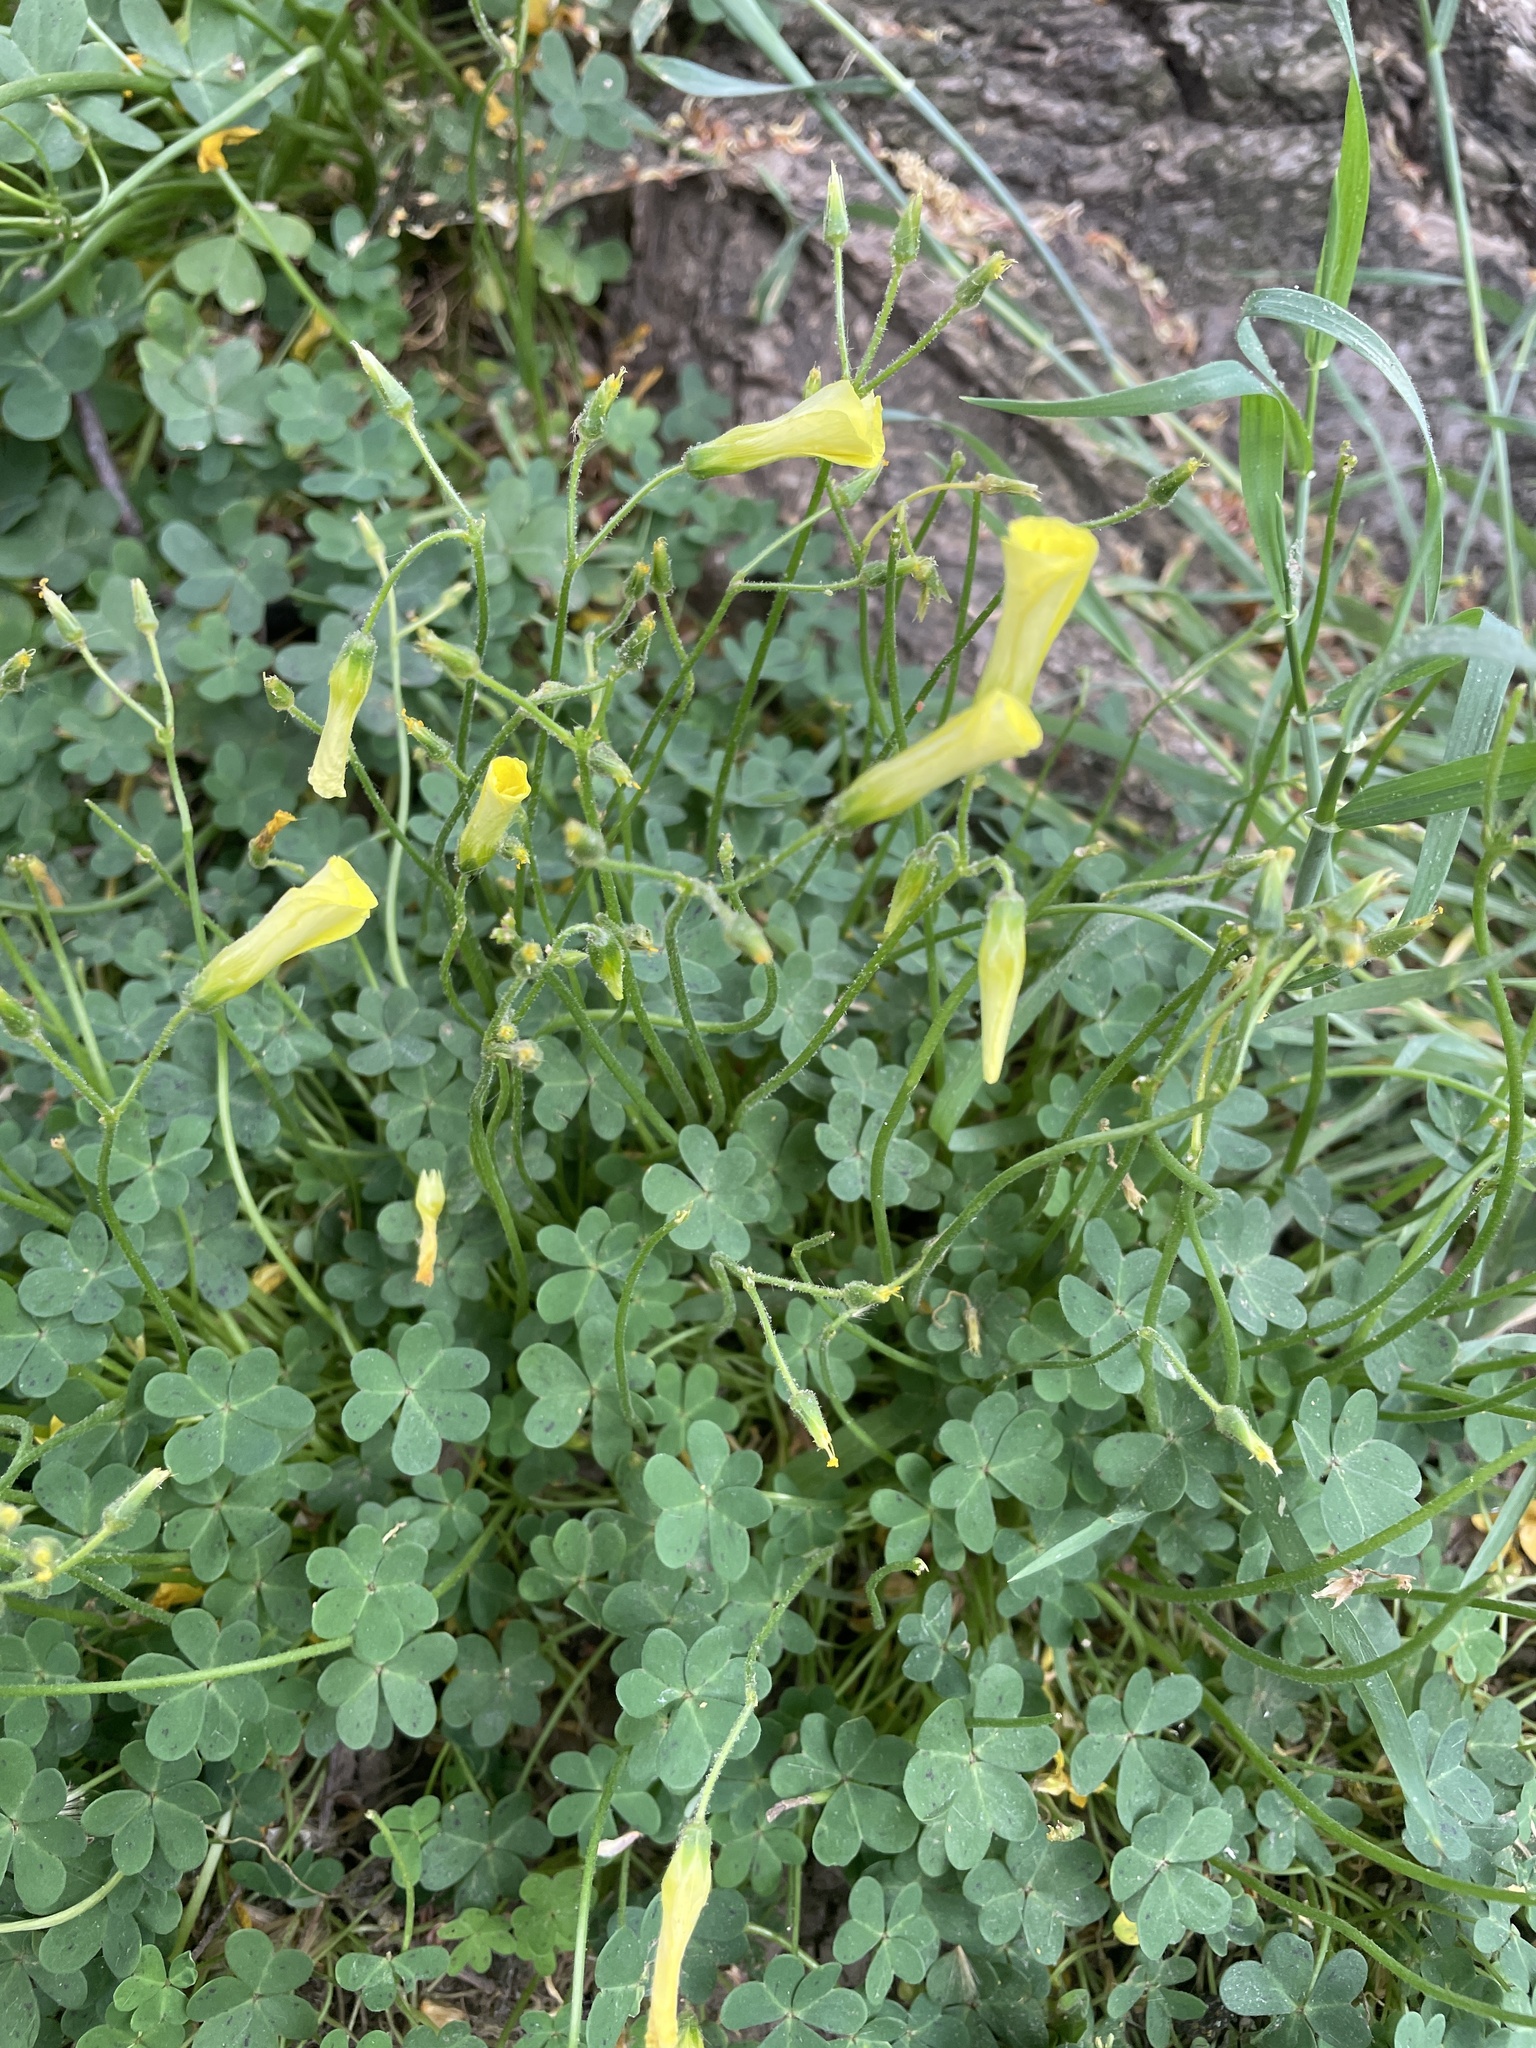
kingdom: Plantae
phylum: Tracheophyta
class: Magnoliopsida
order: Oxalidales
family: Oxalidaceae
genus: Oxalis
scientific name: Oxalis pes-caprae
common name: Bermuda-buttercup
